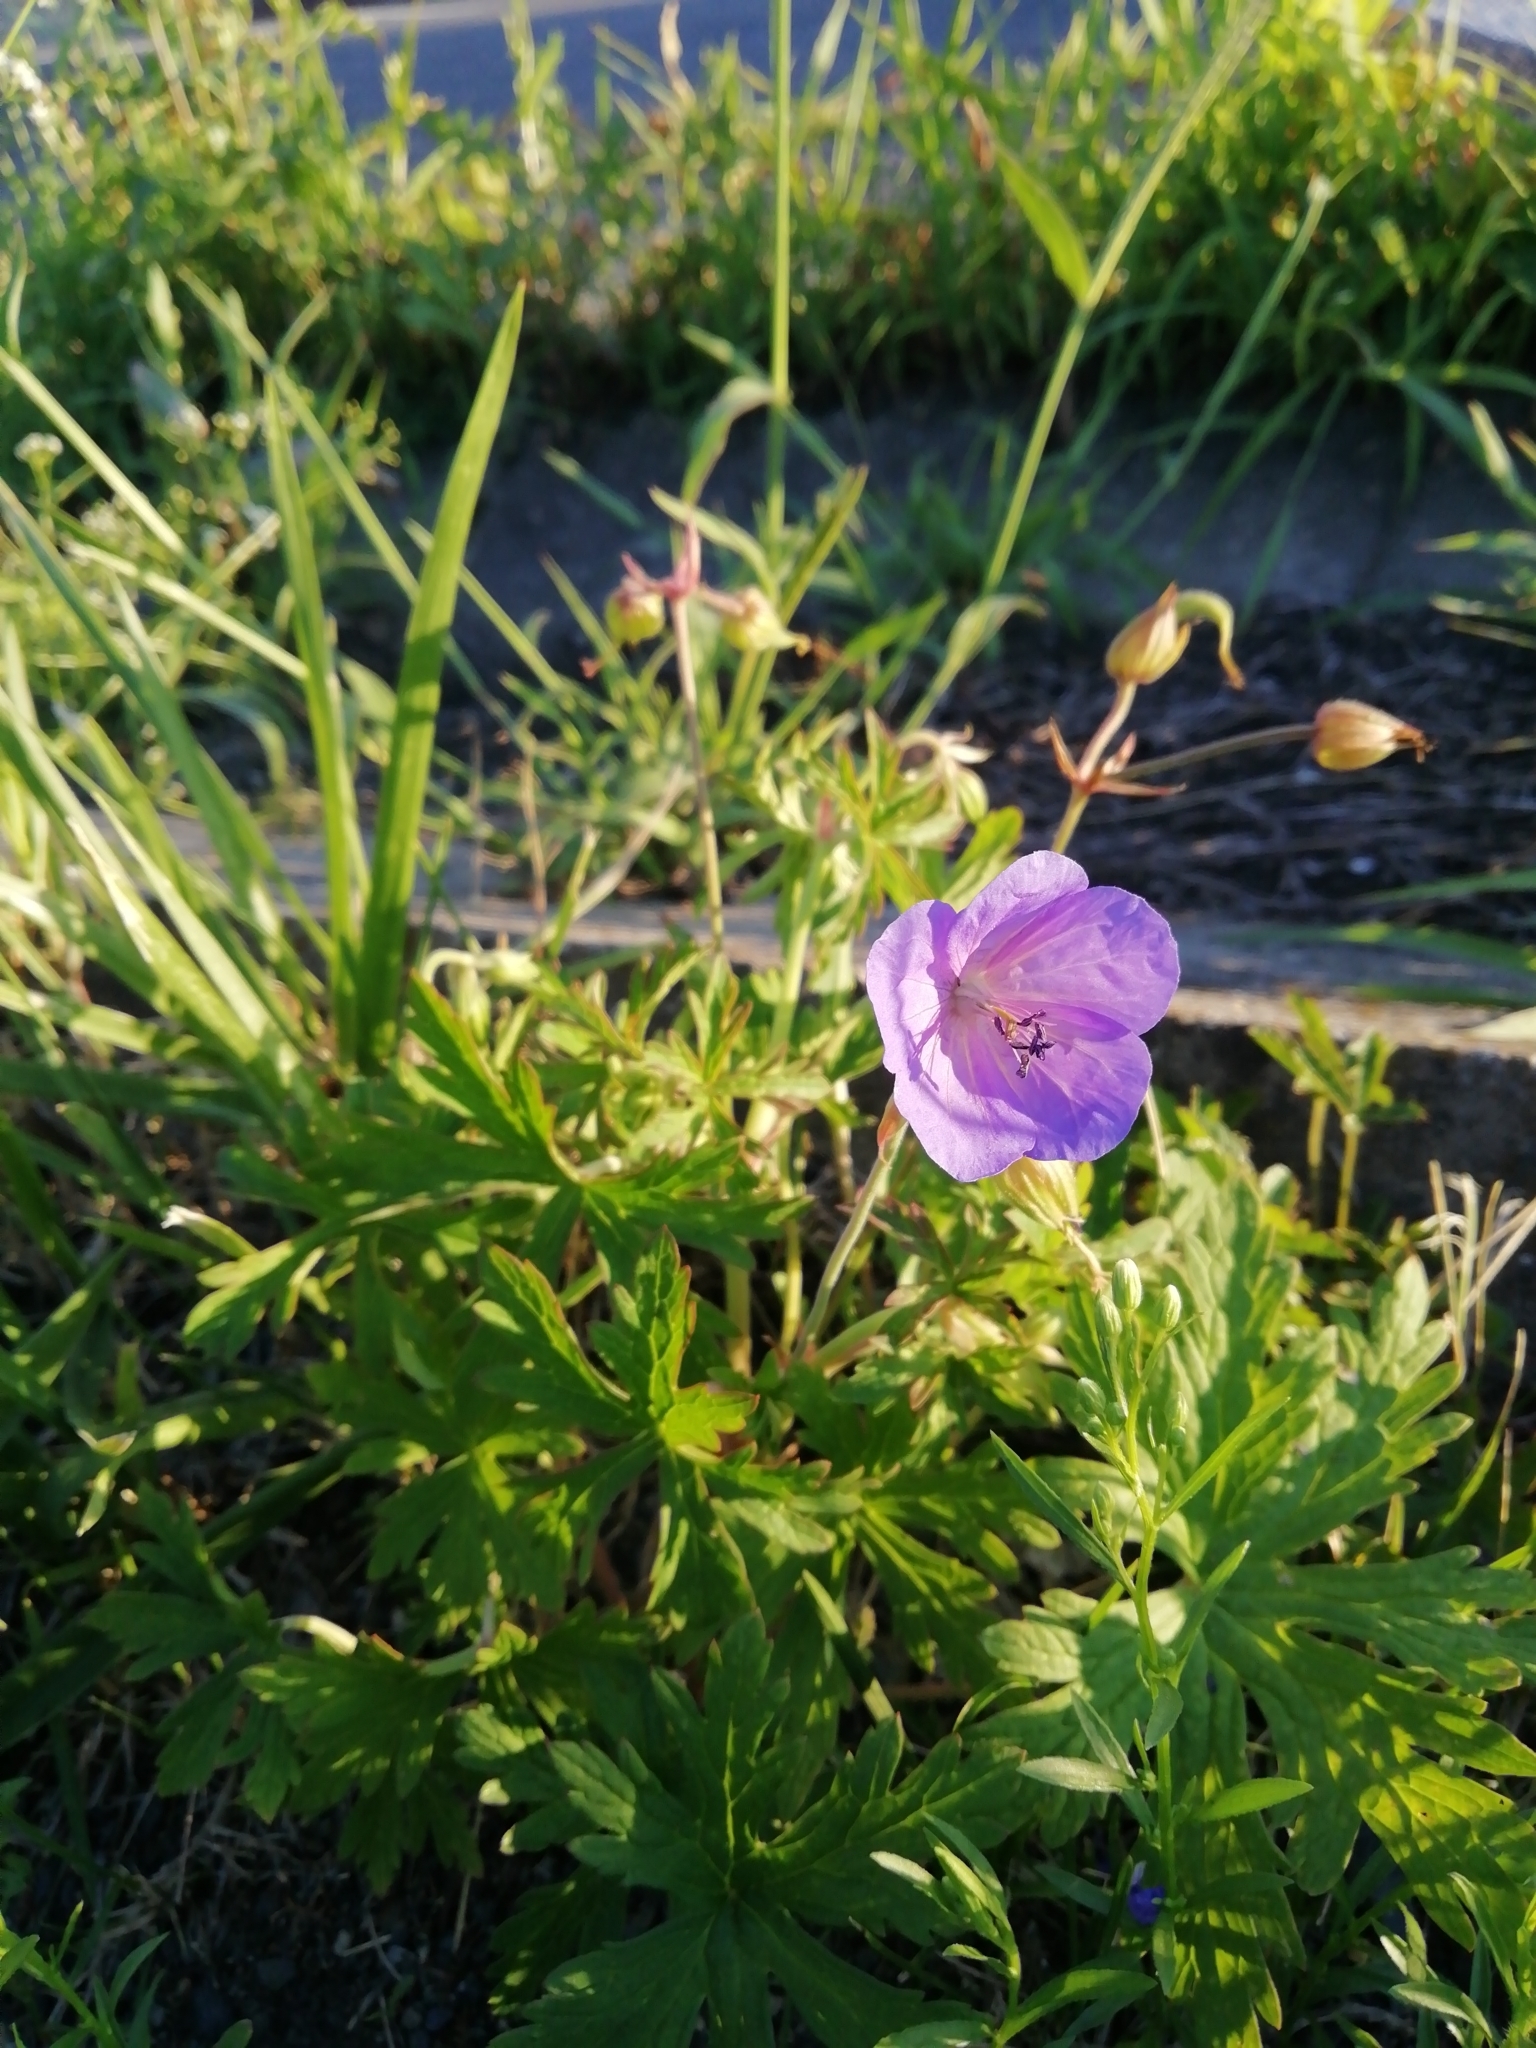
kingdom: Plantae
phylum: Tracheophyta
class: Magnoliopsida
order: Geraniales
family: Geraniaceae
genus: Geranium
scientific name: Geranium pratense
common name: Meadow crane's-bill
